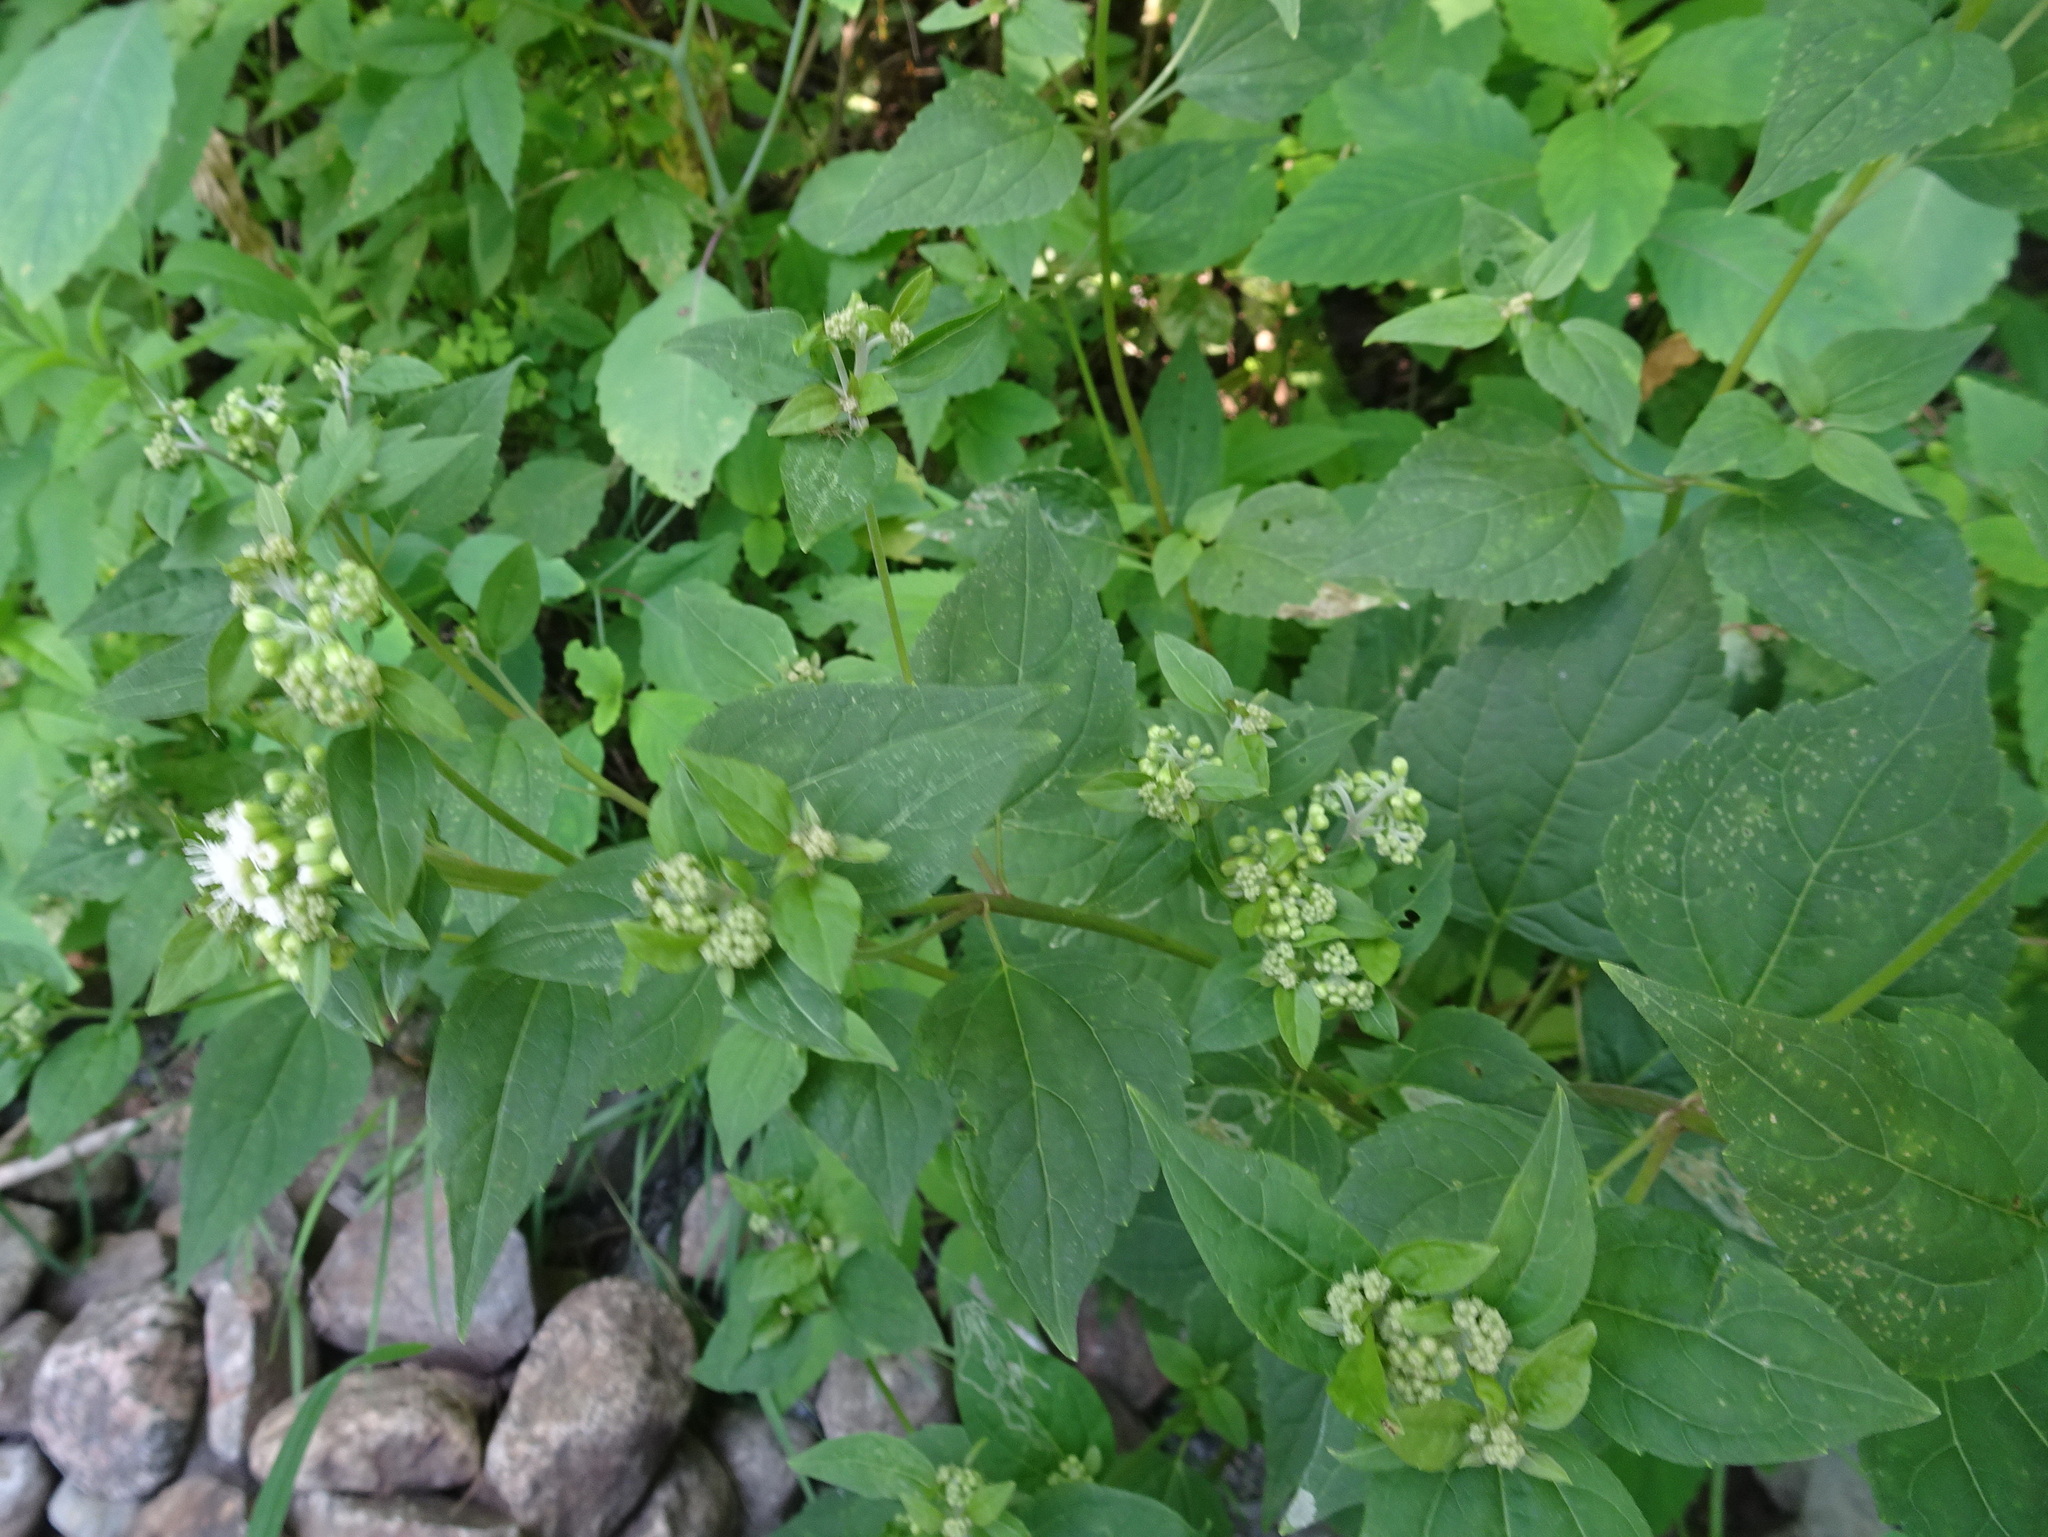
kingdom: Plantae
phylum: Tracheophyta
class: Magnoliopsida
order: Asterales
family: Asteraceae
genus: Ageratina
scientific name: Ageratina altissima
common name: White snakeroot
